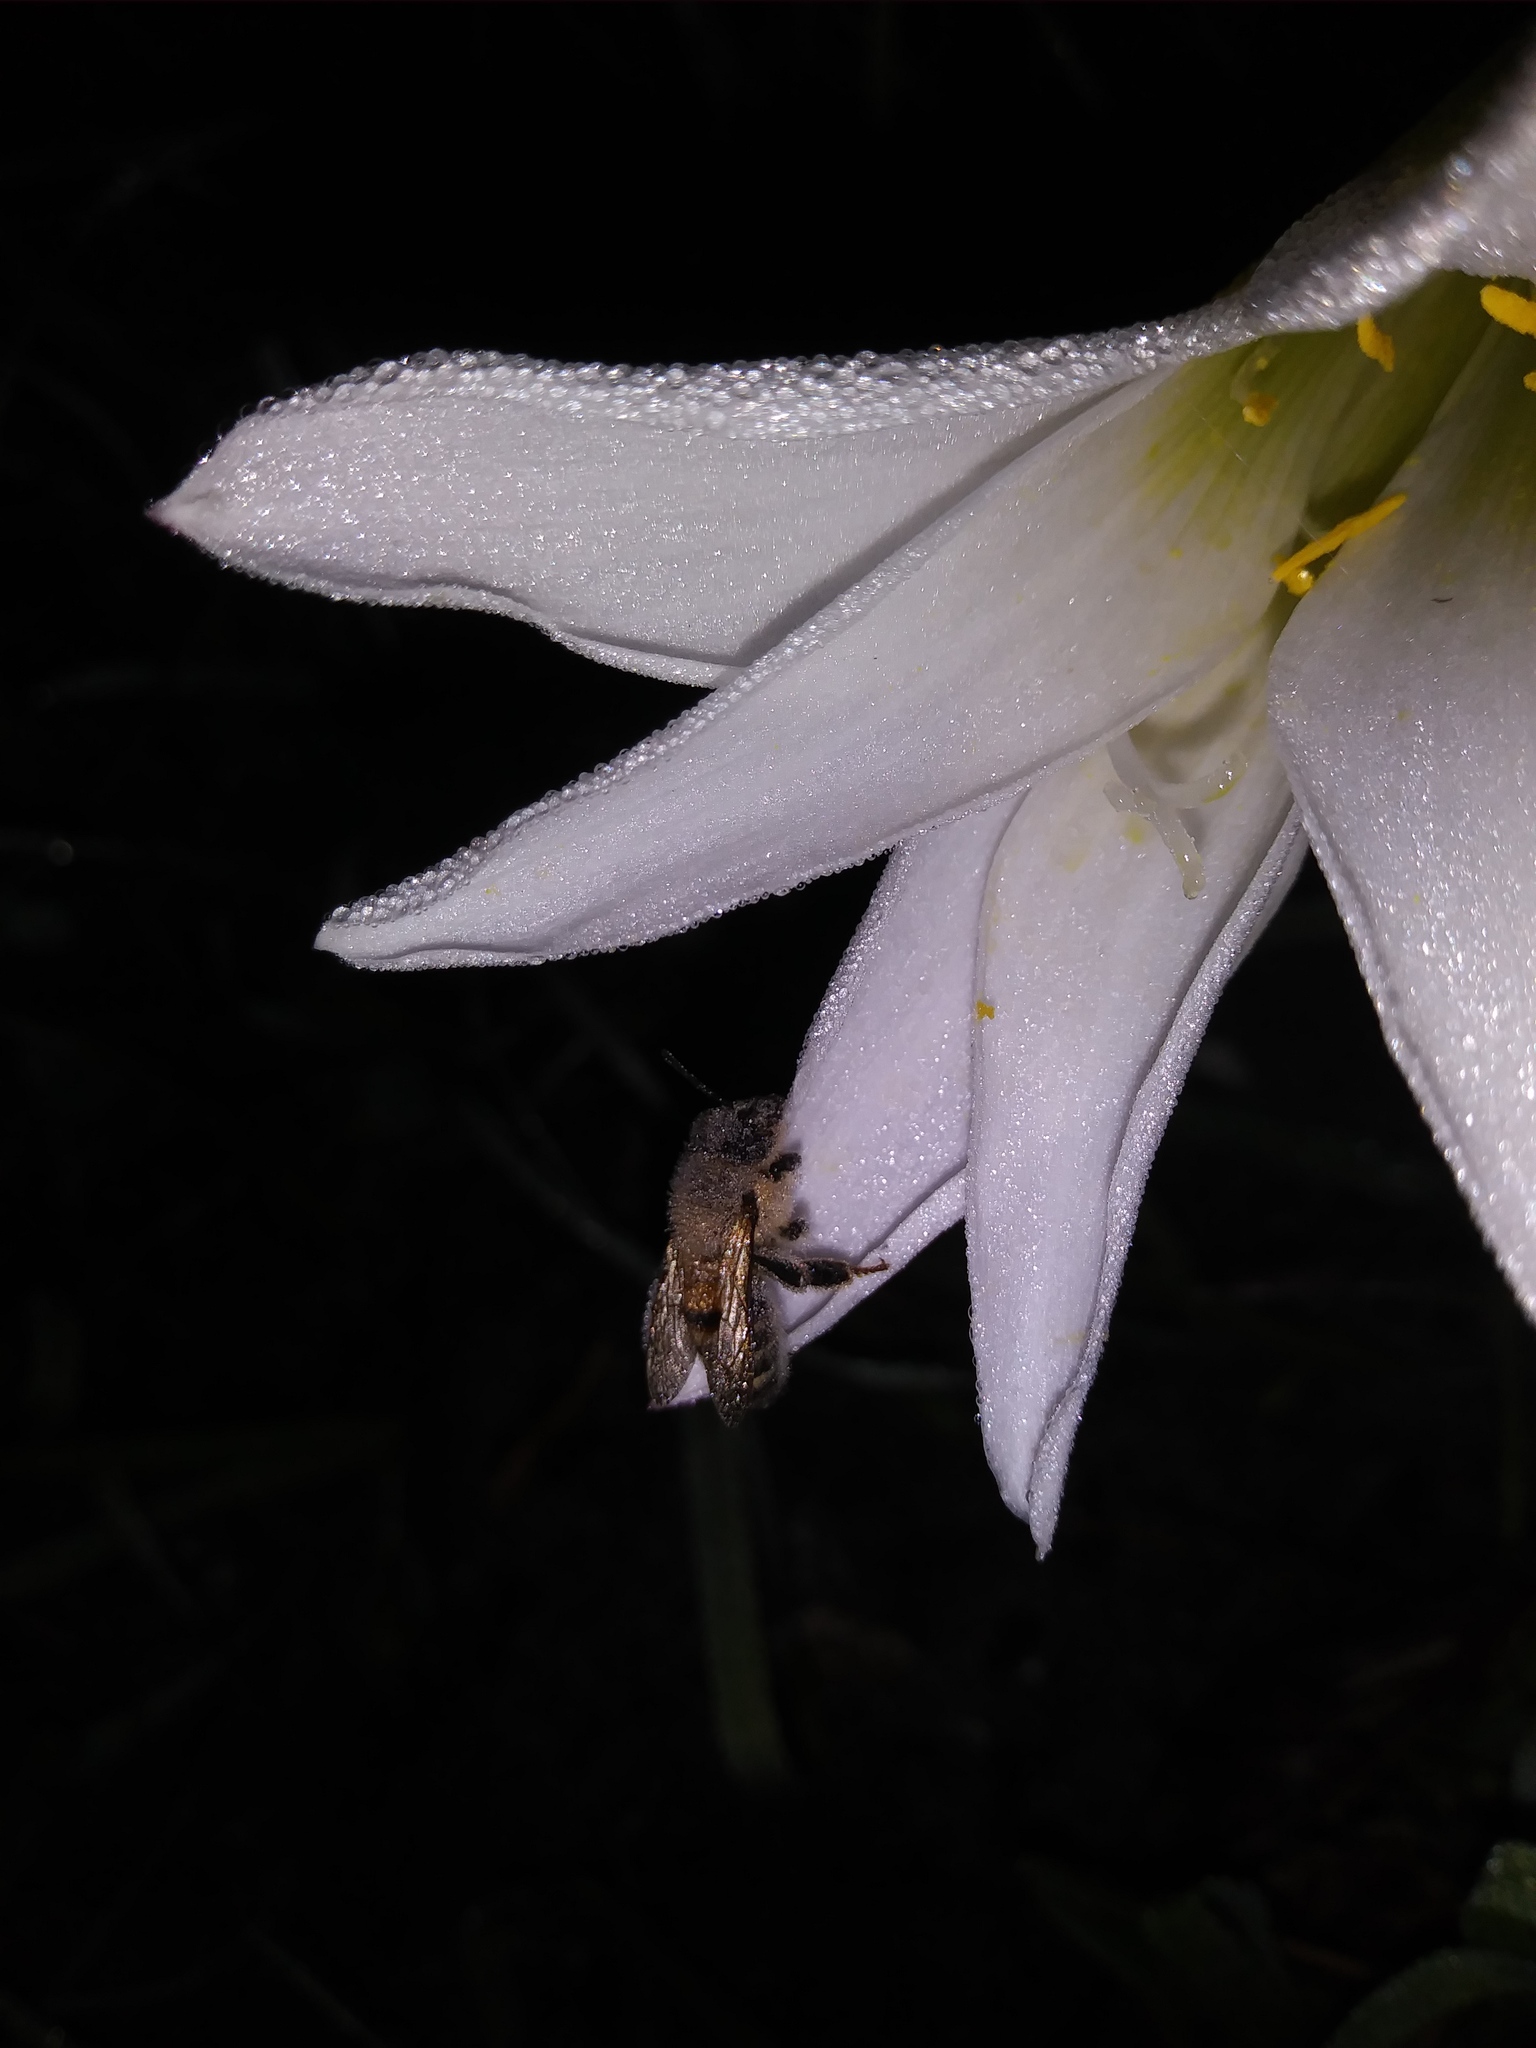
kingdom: Animalia
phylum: Arthropoda
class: Insecta
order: Hymenoptera
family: Apidae
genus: Apis
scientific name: Apis mellifera
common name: Honey bee
